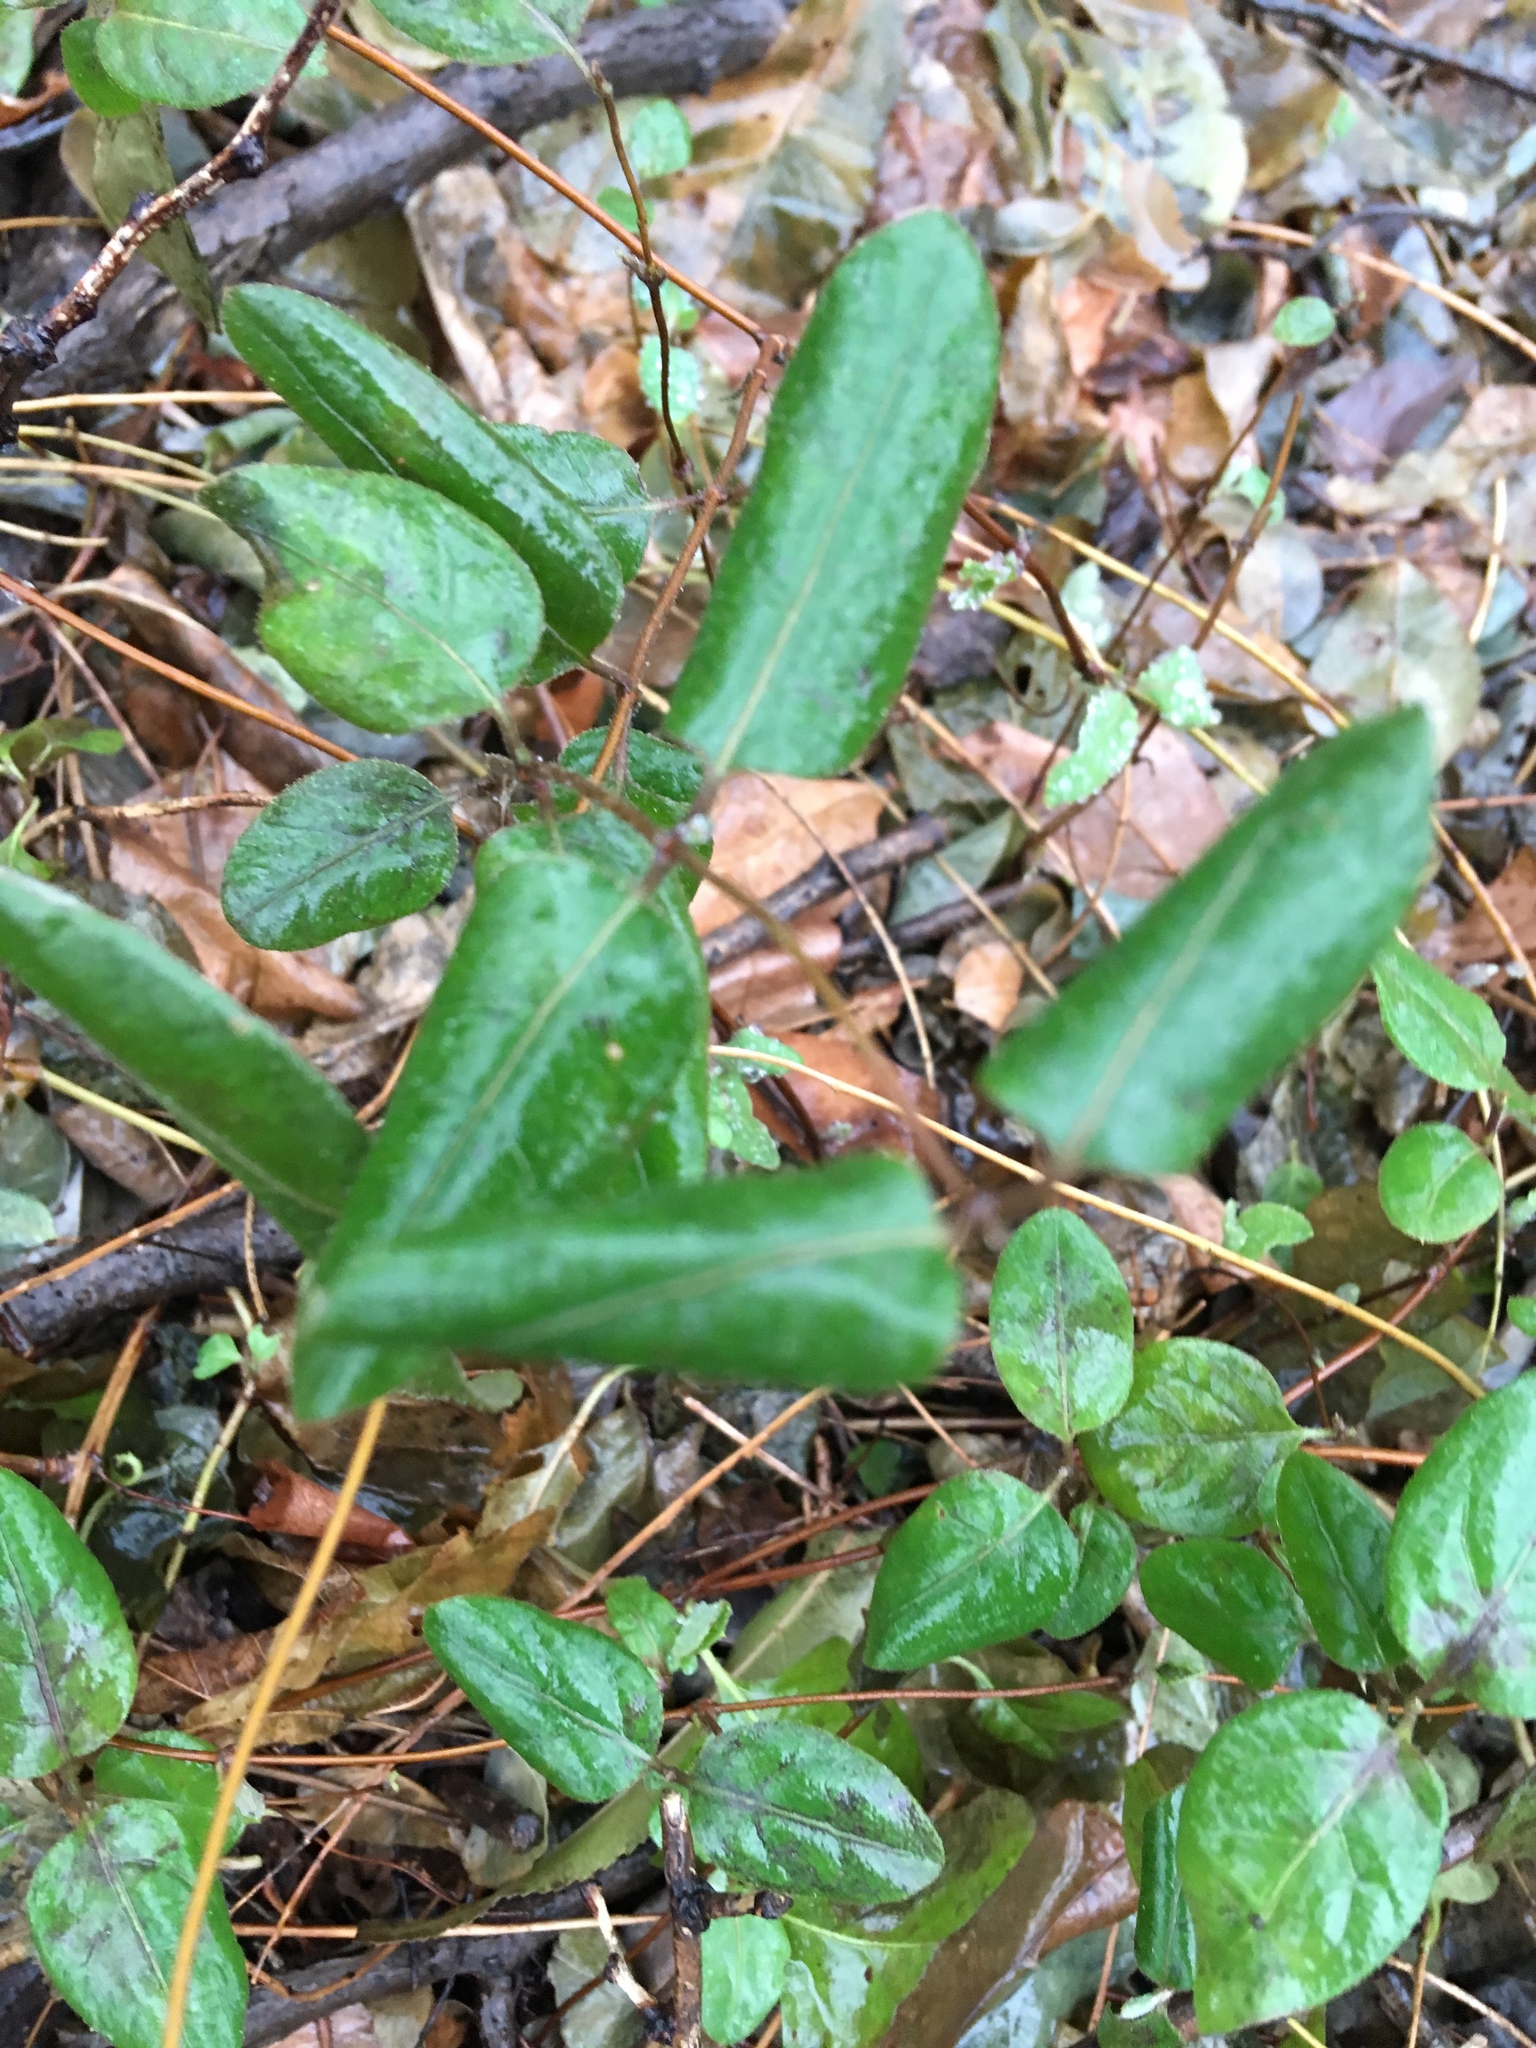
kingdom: Plantae
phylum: Tracheophyta
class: Magnoliopsida
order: Dipsacales
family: Caprifoliaceae
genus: Lonicera
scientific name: Lonicera japonica
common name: Japanese honeysuckle
